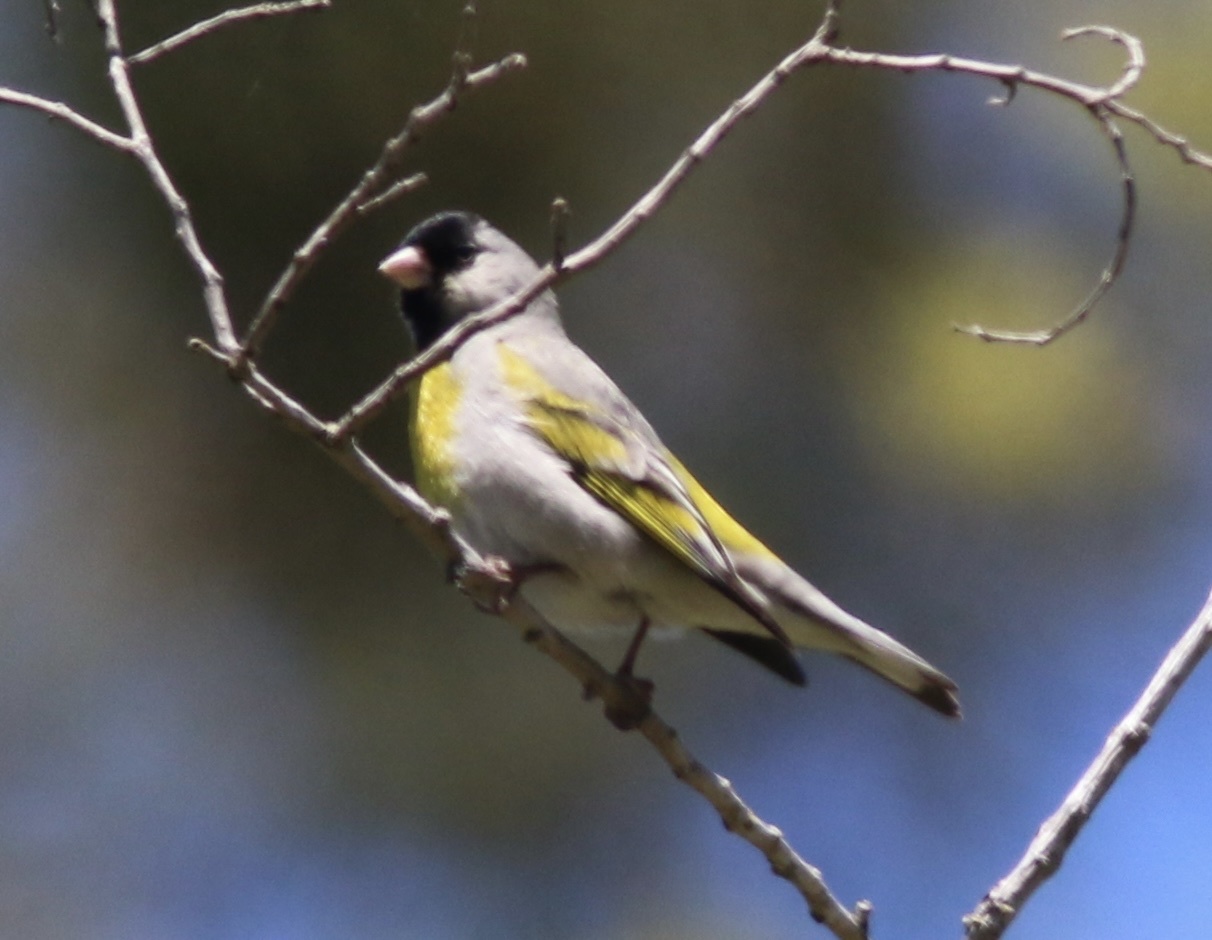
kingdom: Animalia
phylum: Chordata
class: Aves
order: Passeriformes
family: Fringillidae
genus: Spinus
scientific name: Spinus lawrencei
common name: Lawrence's goldfinch
